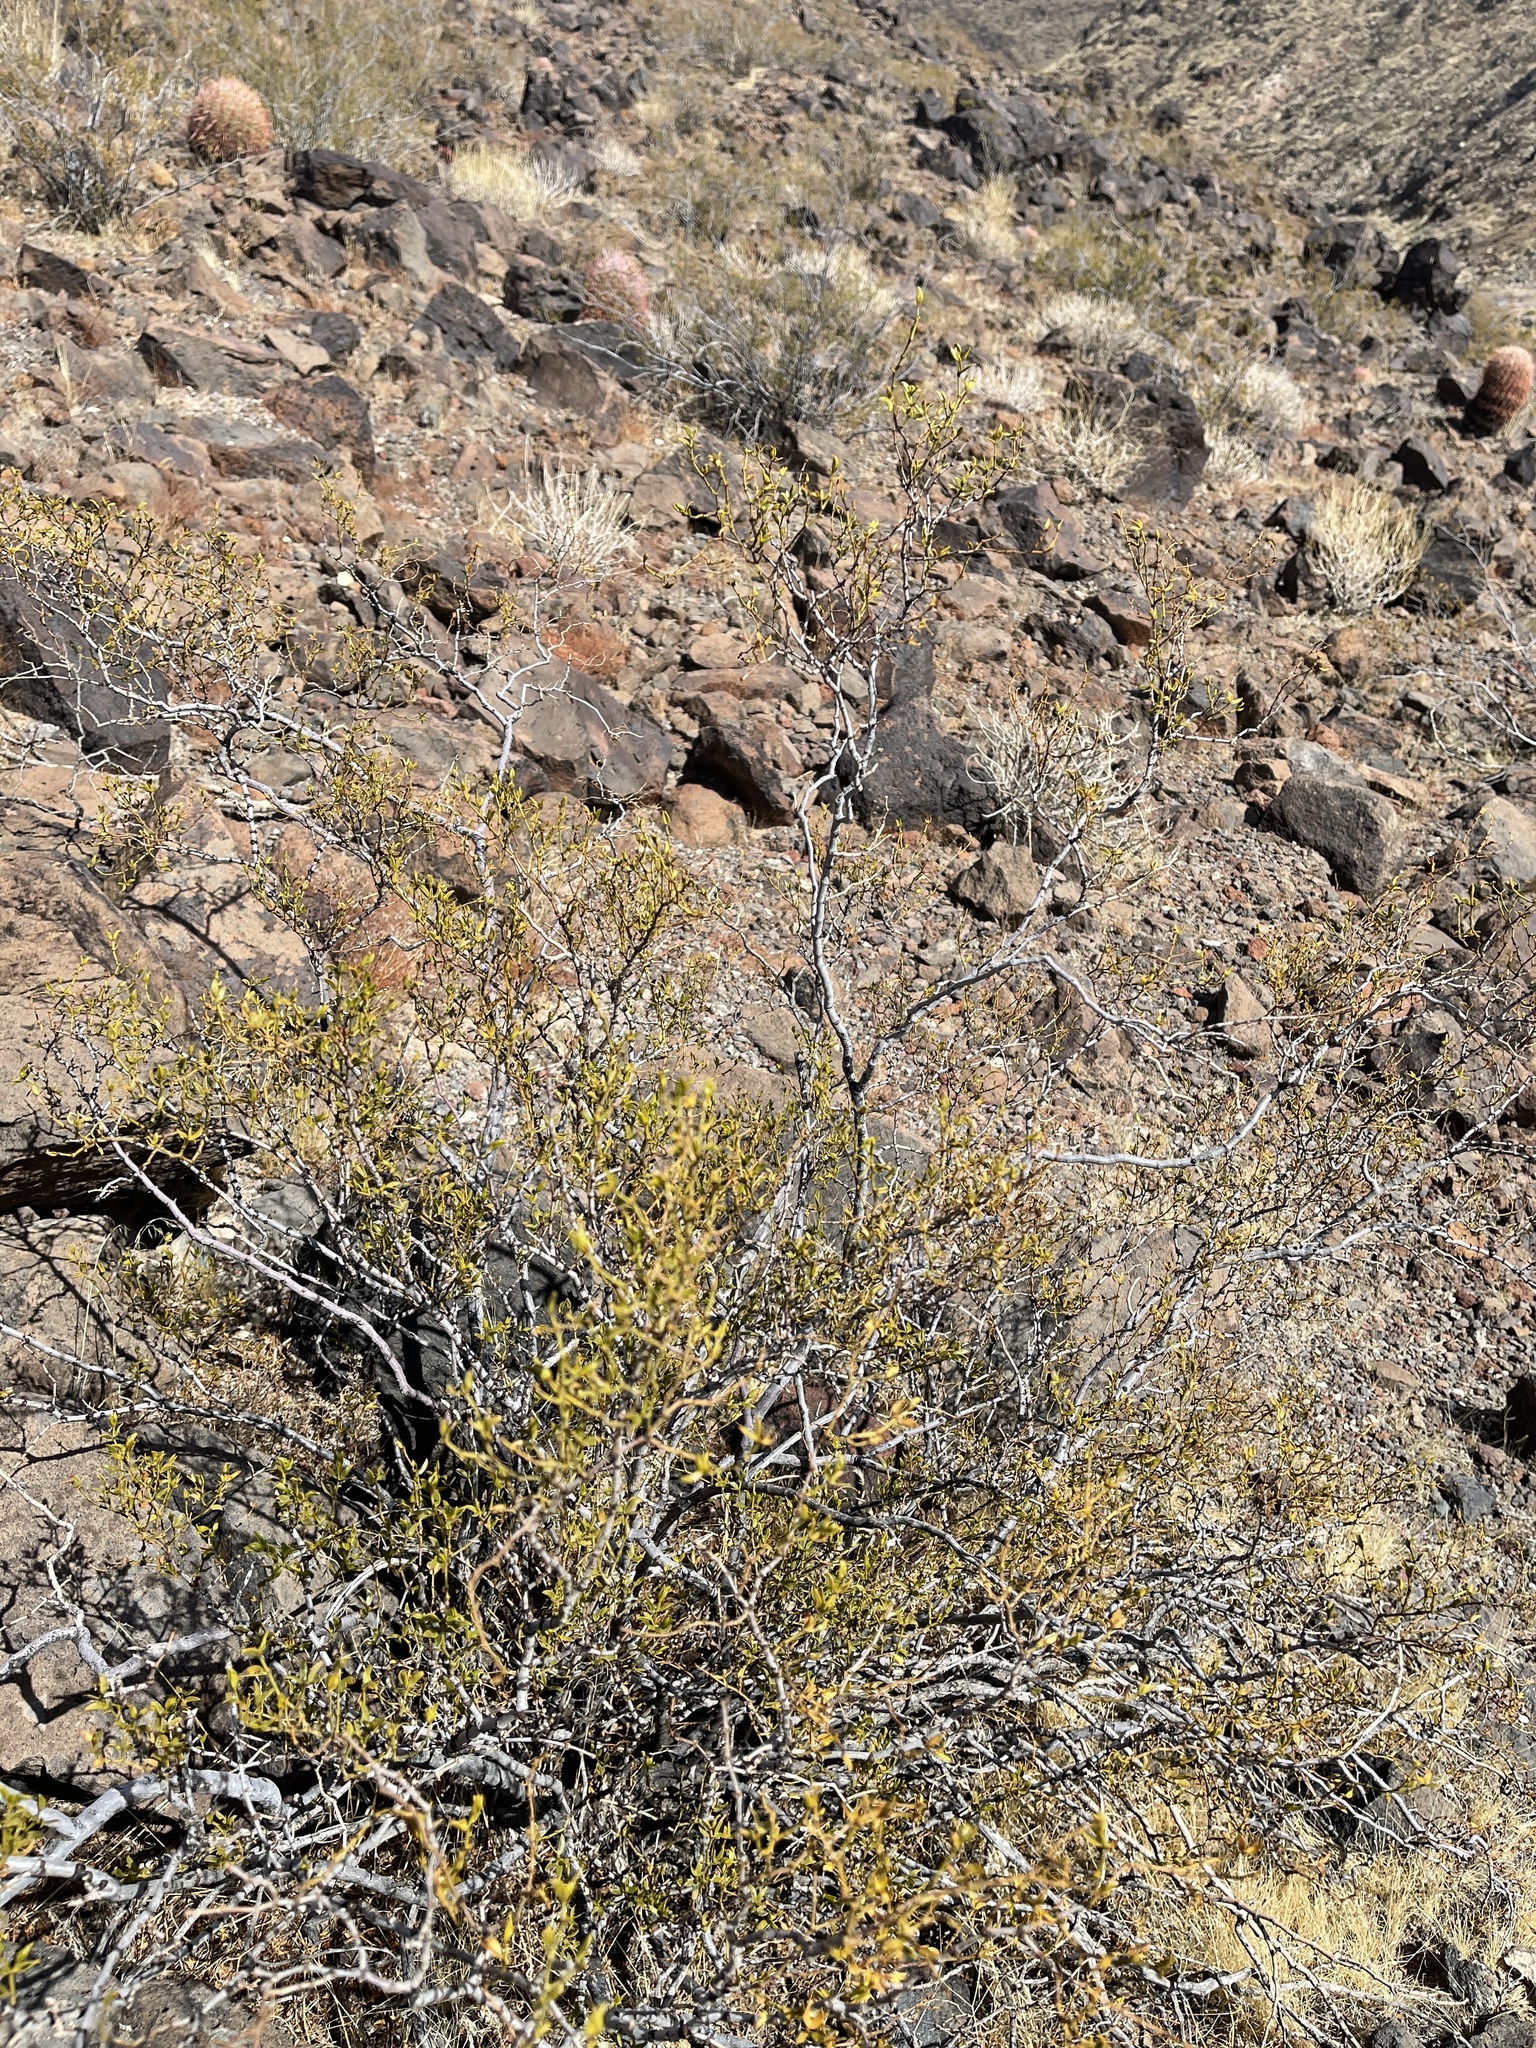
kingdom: Plantae
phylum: Tracheophyta
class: Magnoliopsida
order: Zygophyllales
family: Zygophyllaceae
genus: Larrea
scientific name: Larrea tridentata
